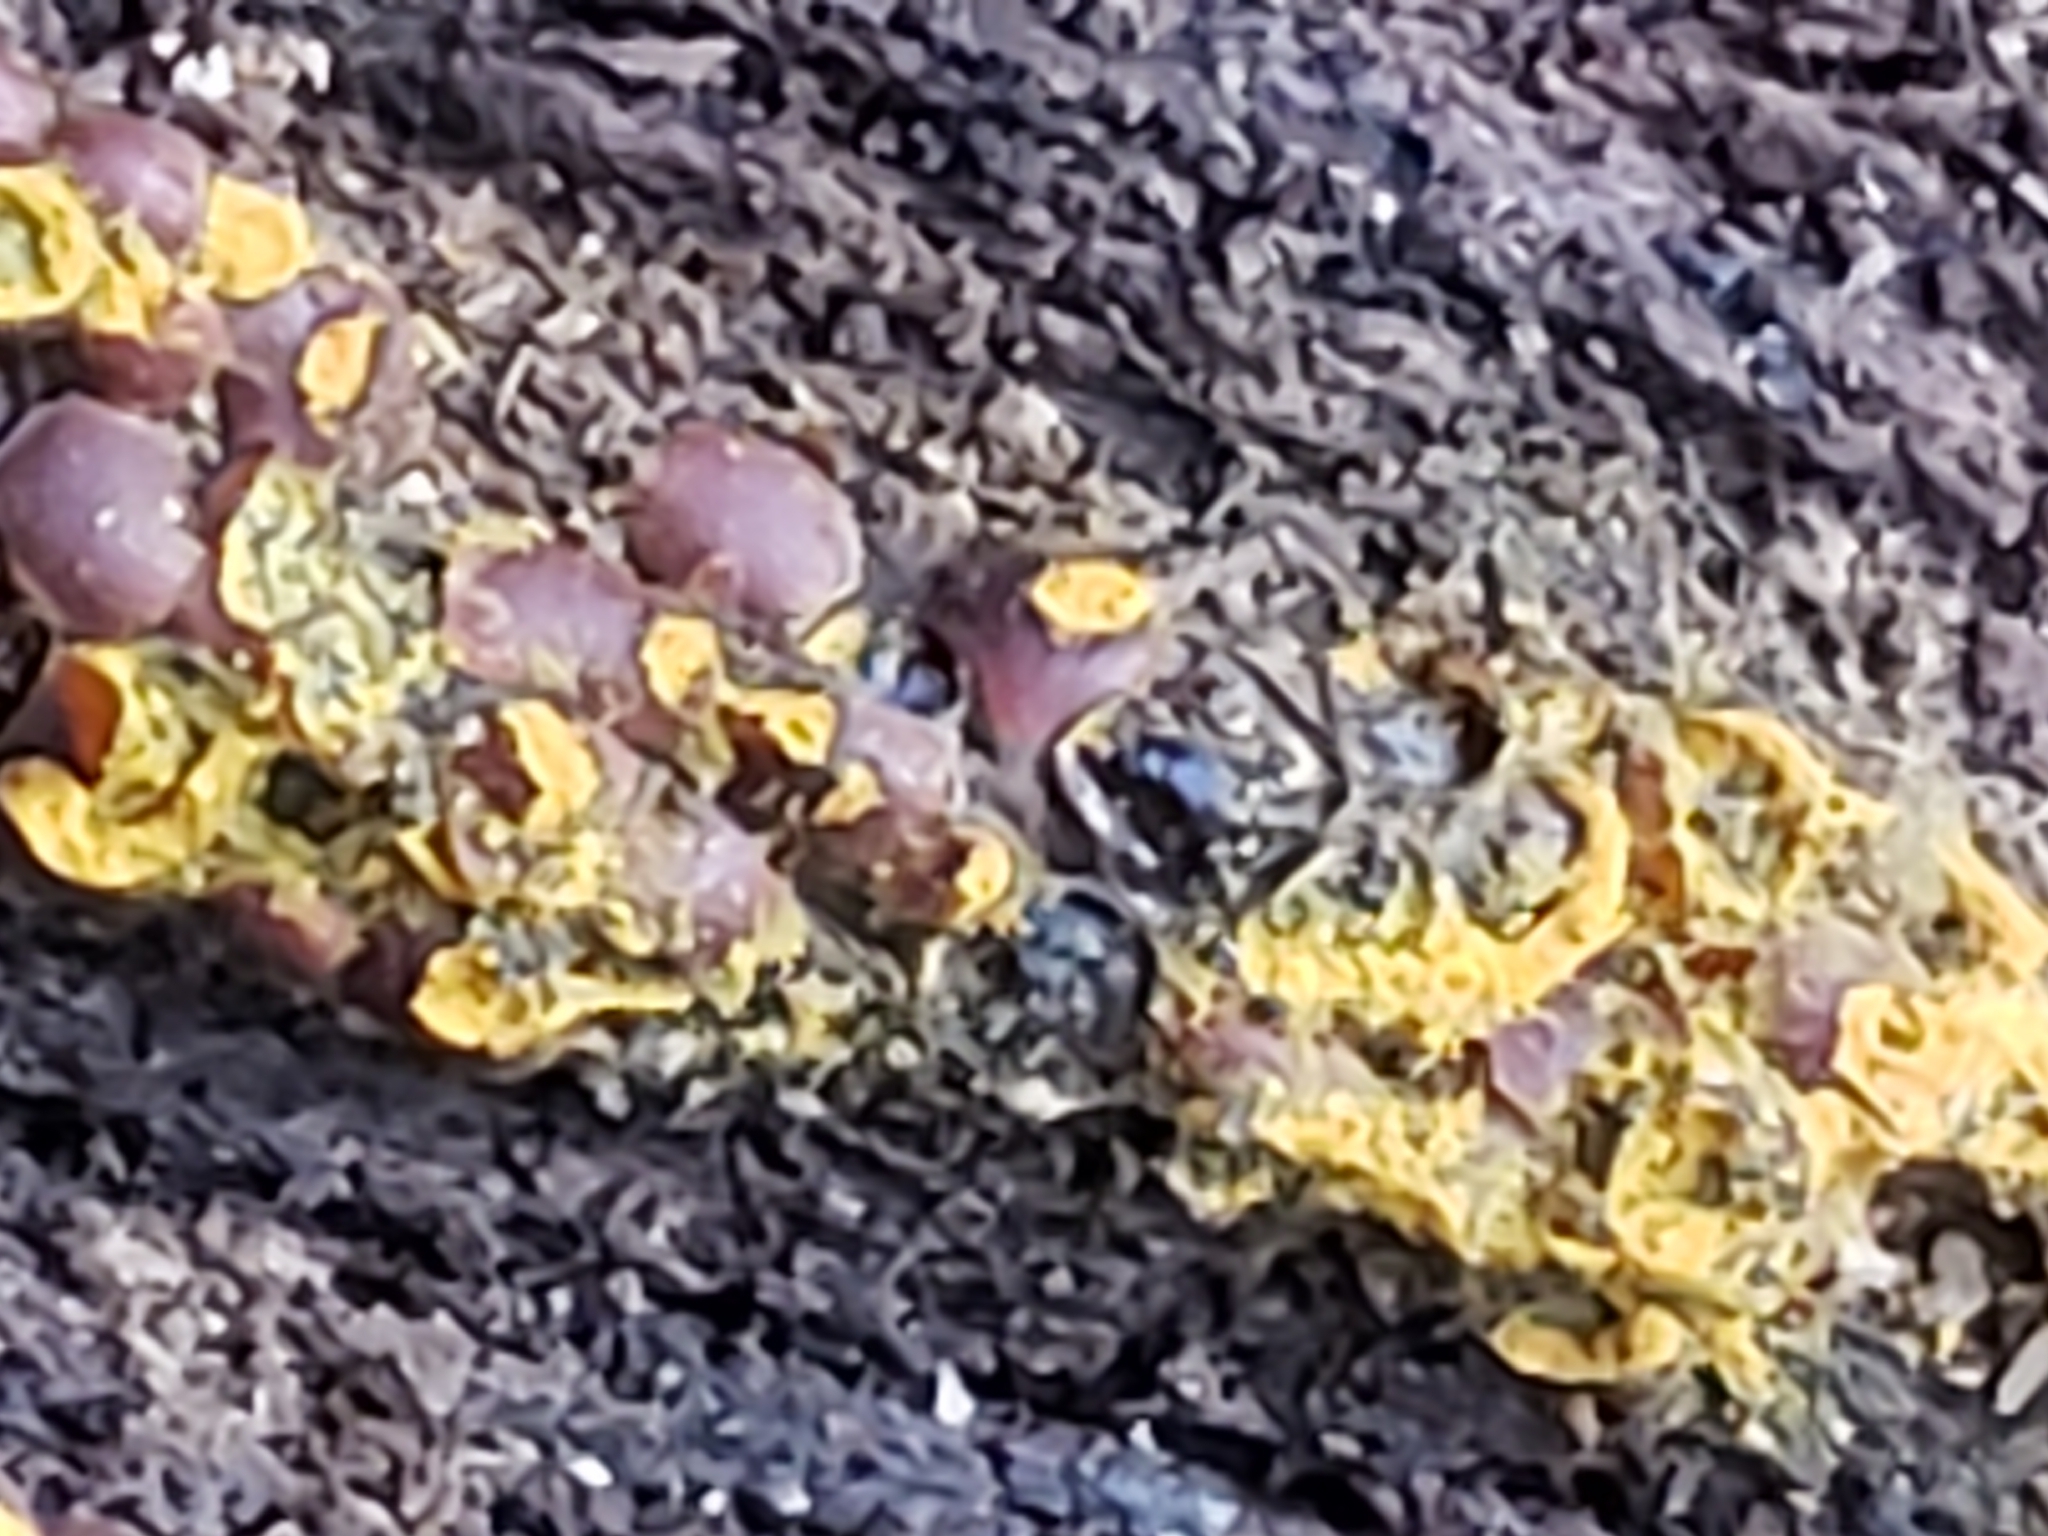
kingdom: Protozoa
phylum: Mycetozoa
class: Myxomycetes
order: Trichiales
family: Trichiaceae
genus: Perichaena
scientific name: Perichaena depressa
